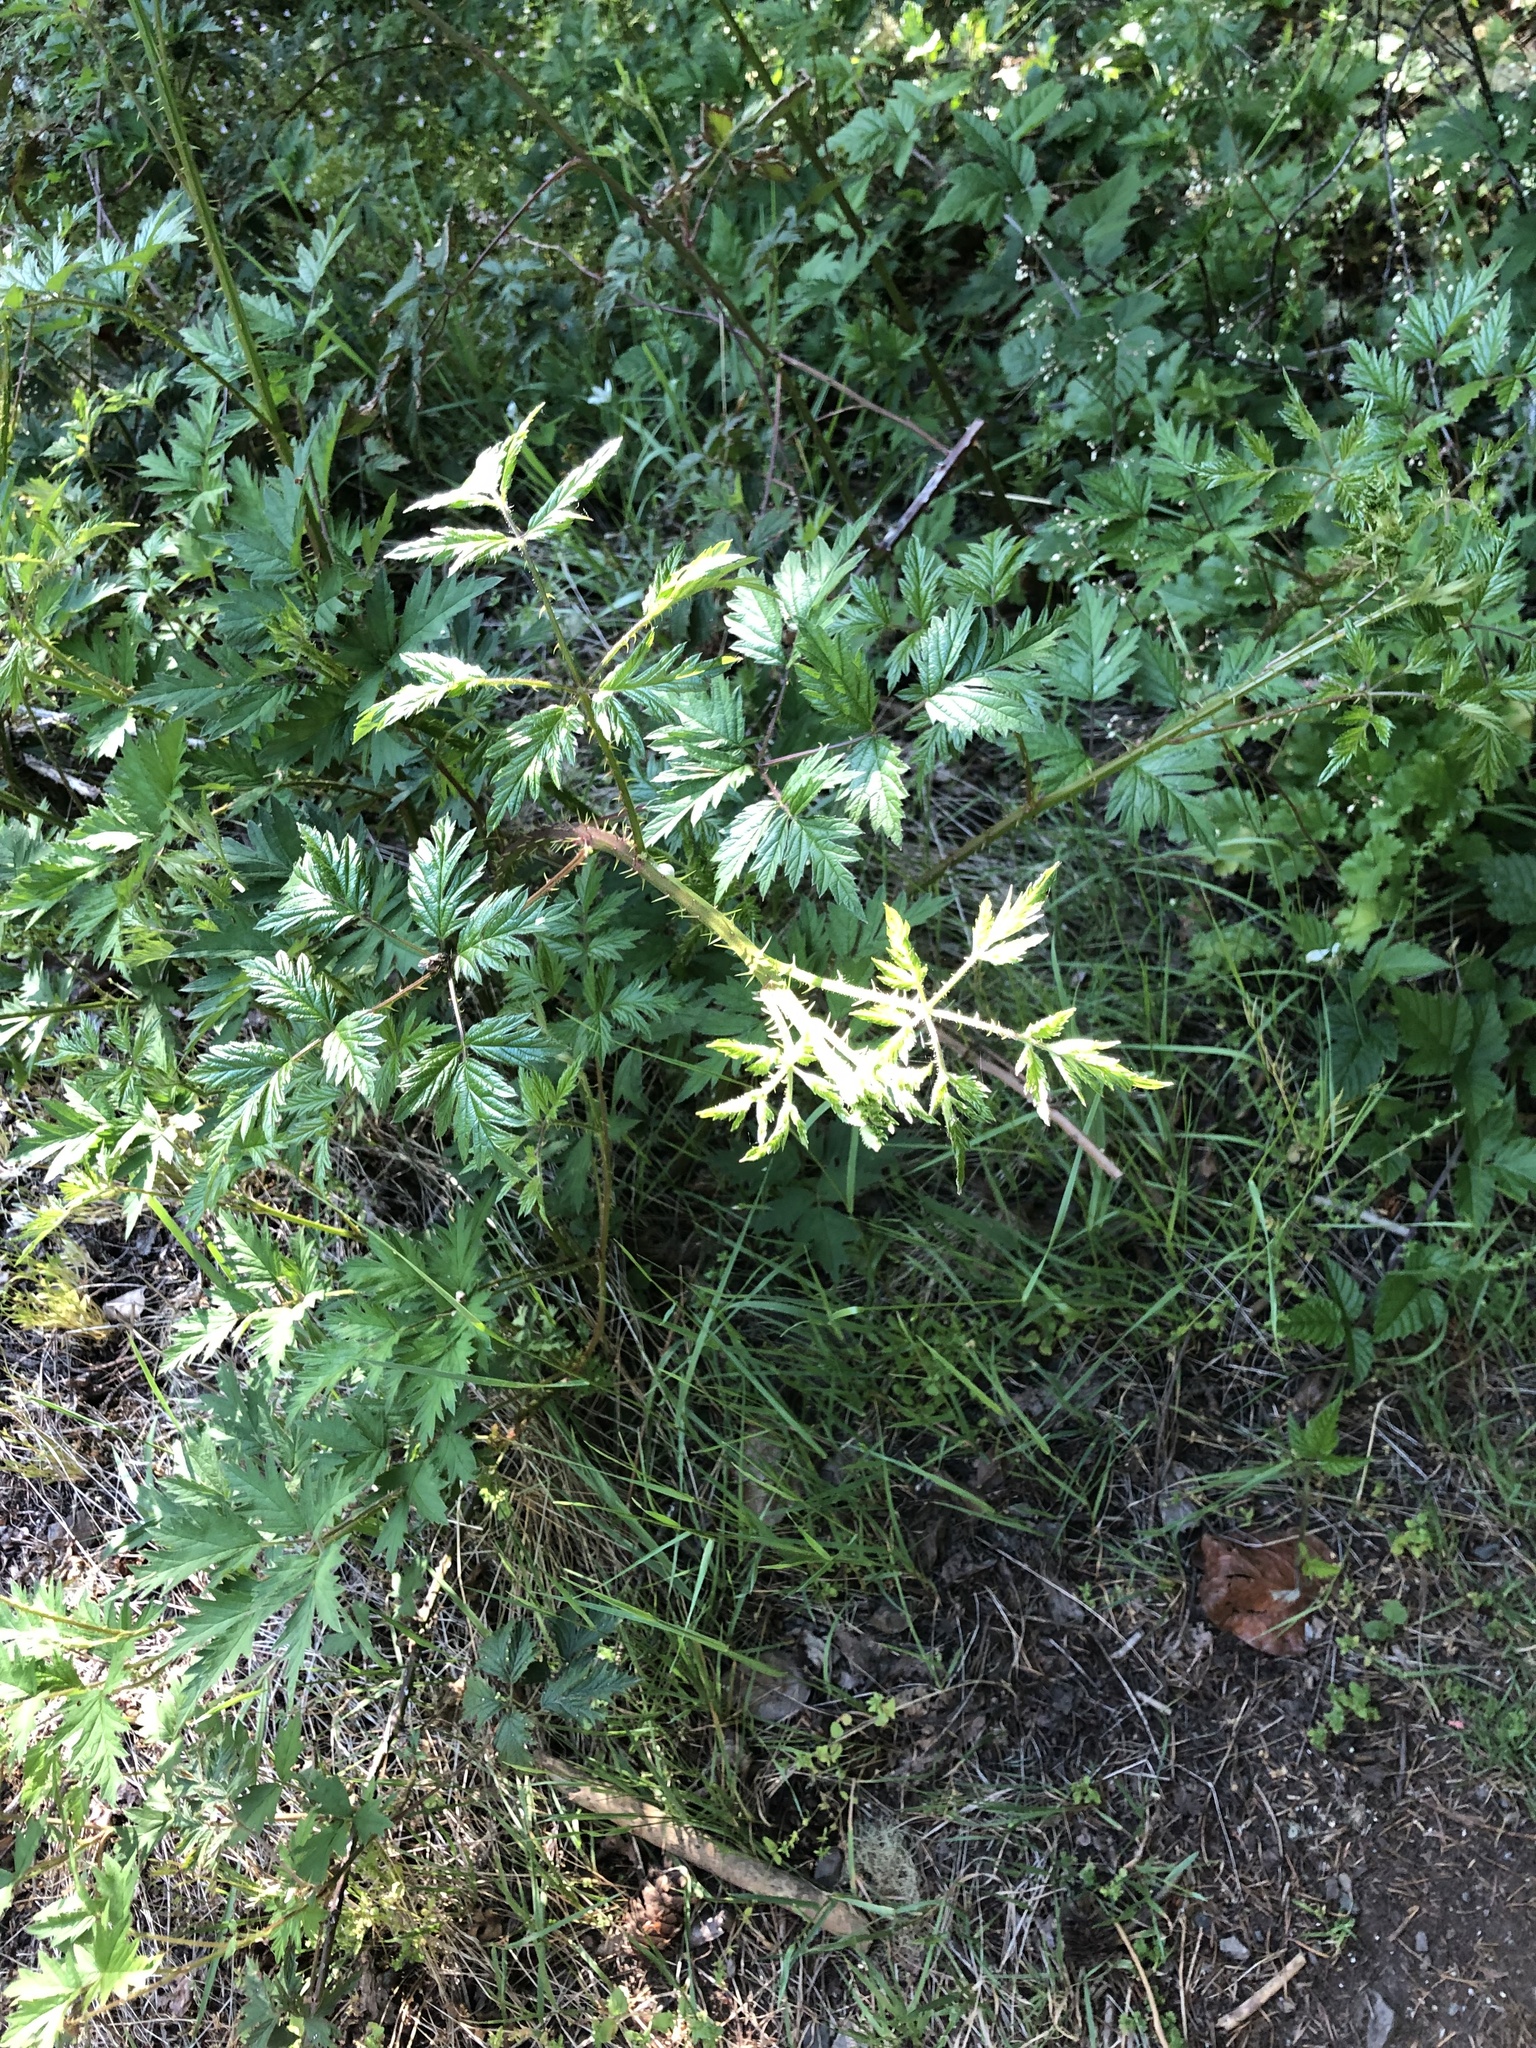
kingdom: Plantae
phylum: Tracheophyta
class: Magnoliopsida
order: Rosales
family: Rosaceae
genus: Rubus
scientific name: Rubus laciniatus
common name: Evergreen blackberry
